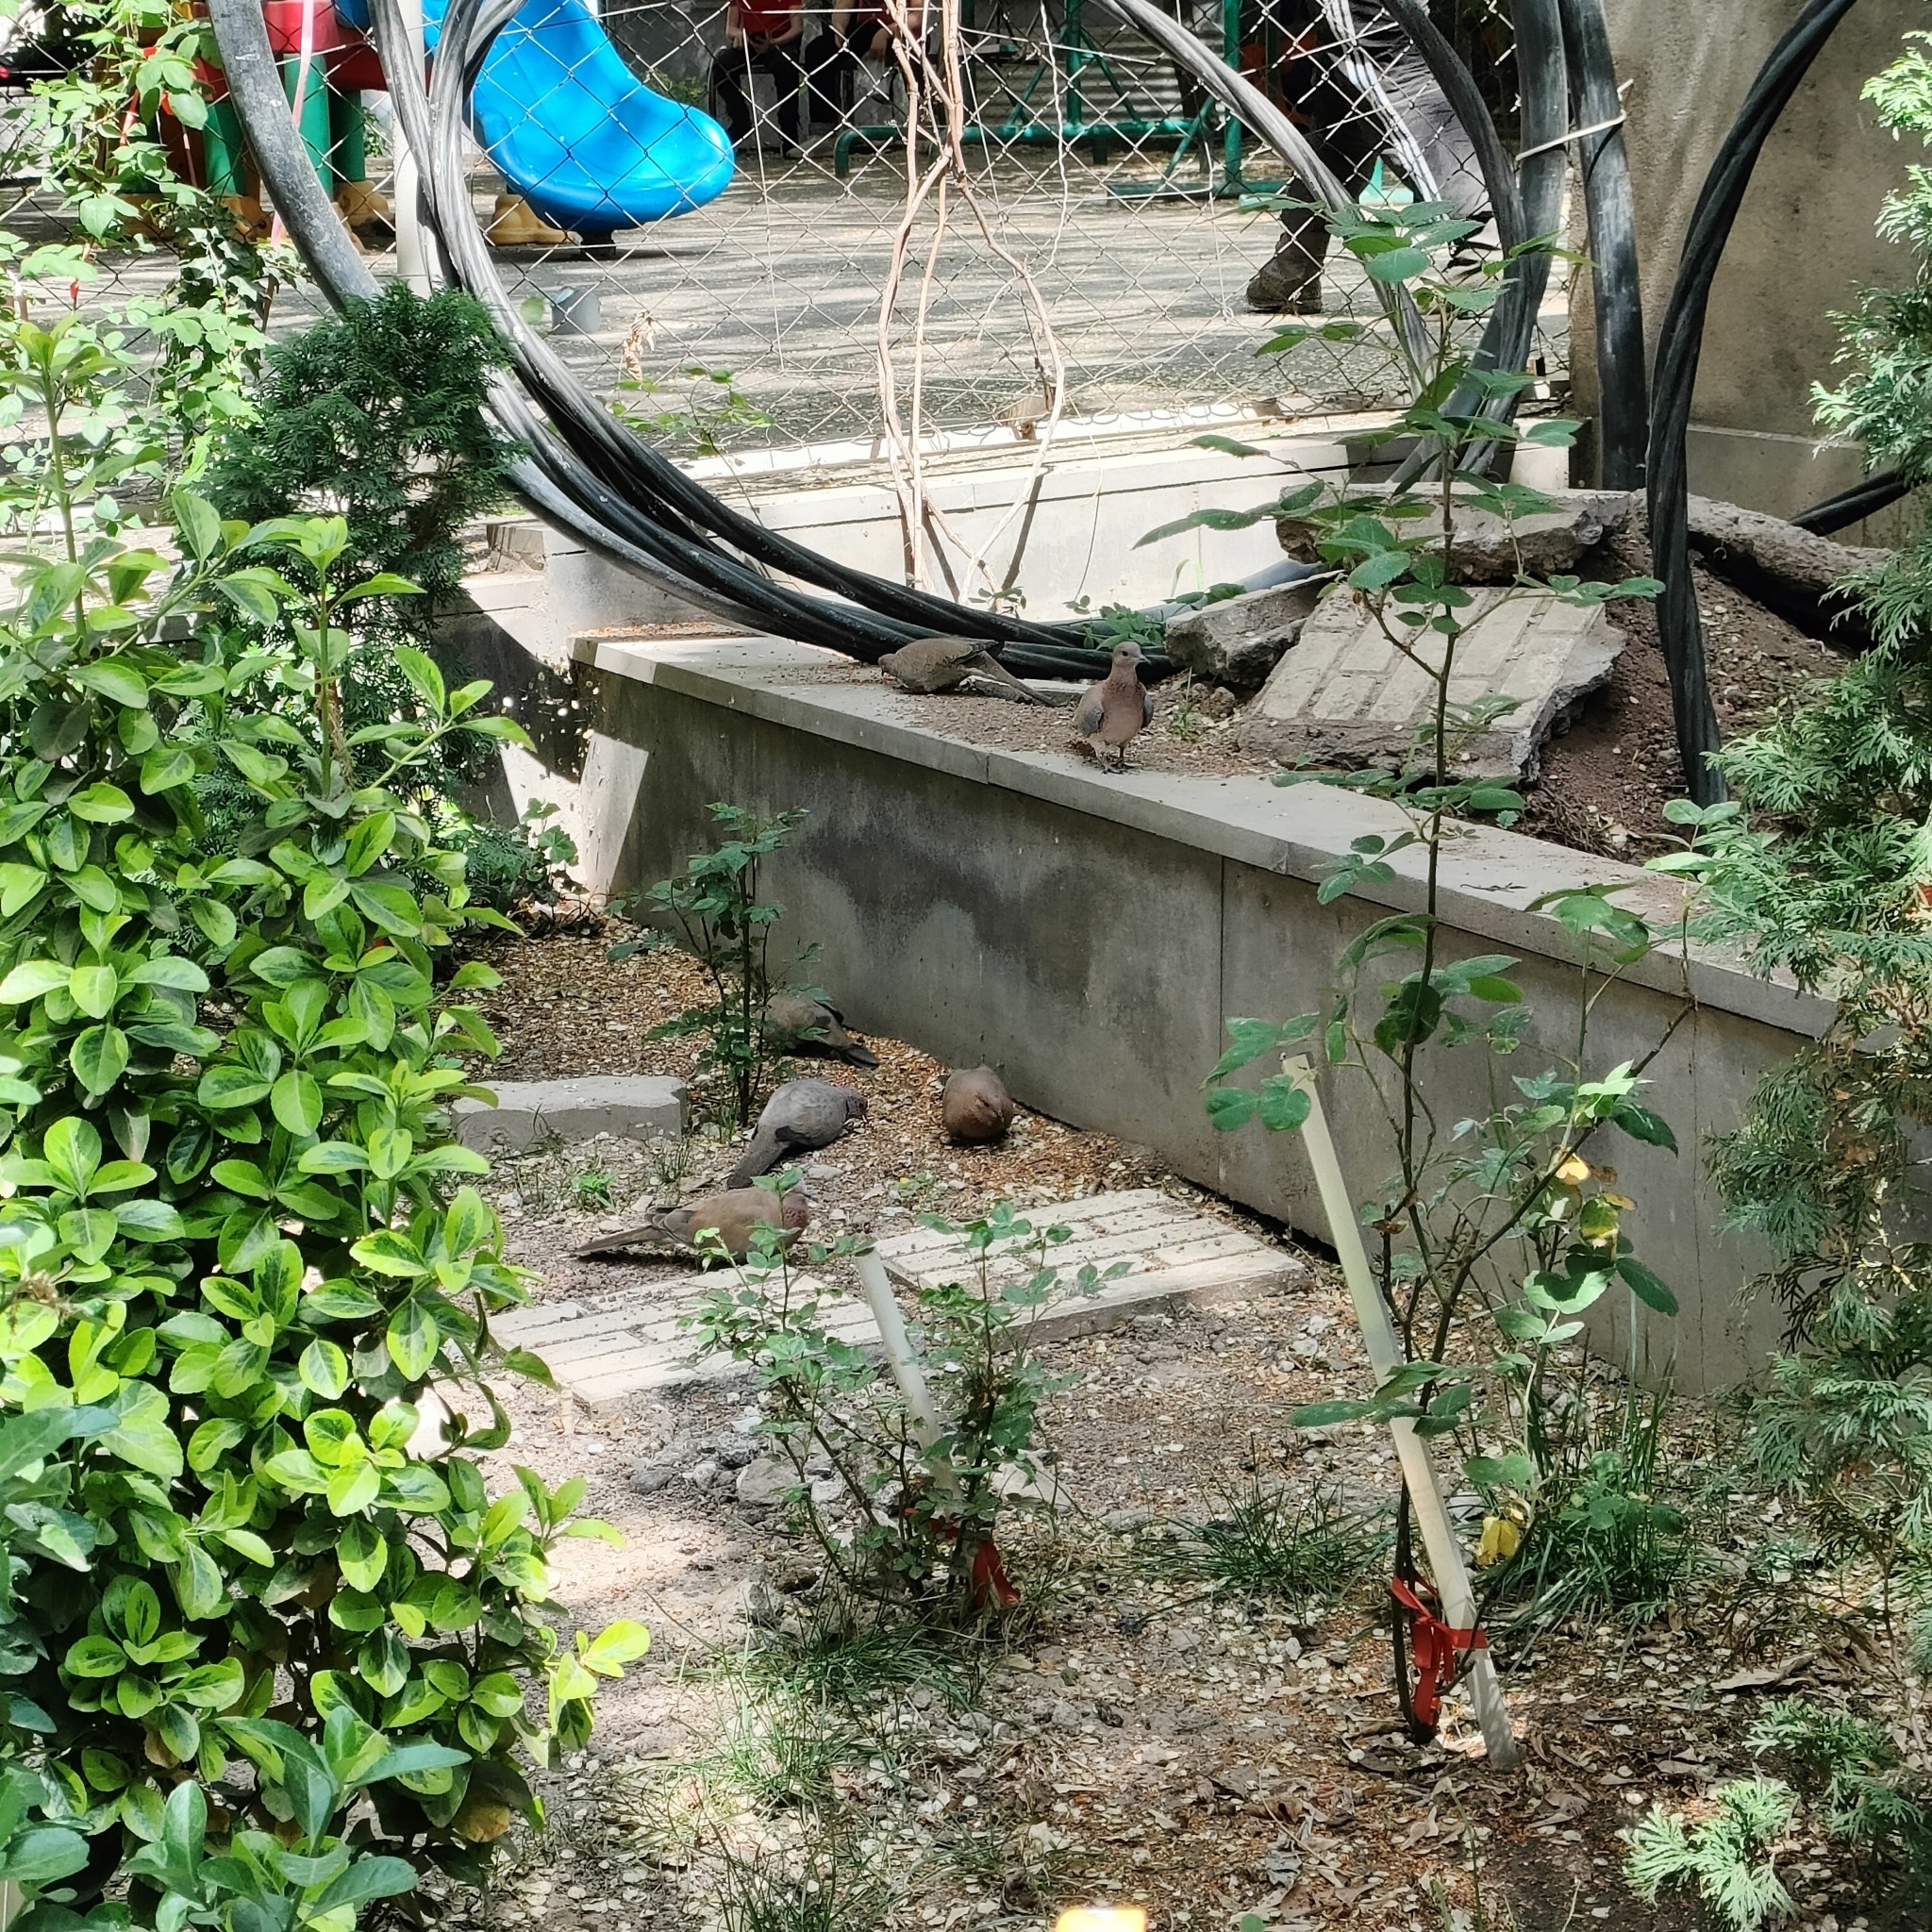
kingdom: Animalia
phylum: Chordata
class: Aves
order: Columbiformes
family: Columbidae
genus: Spilopelia
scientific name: Spilopelia senegalensis
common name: Laughing dove
